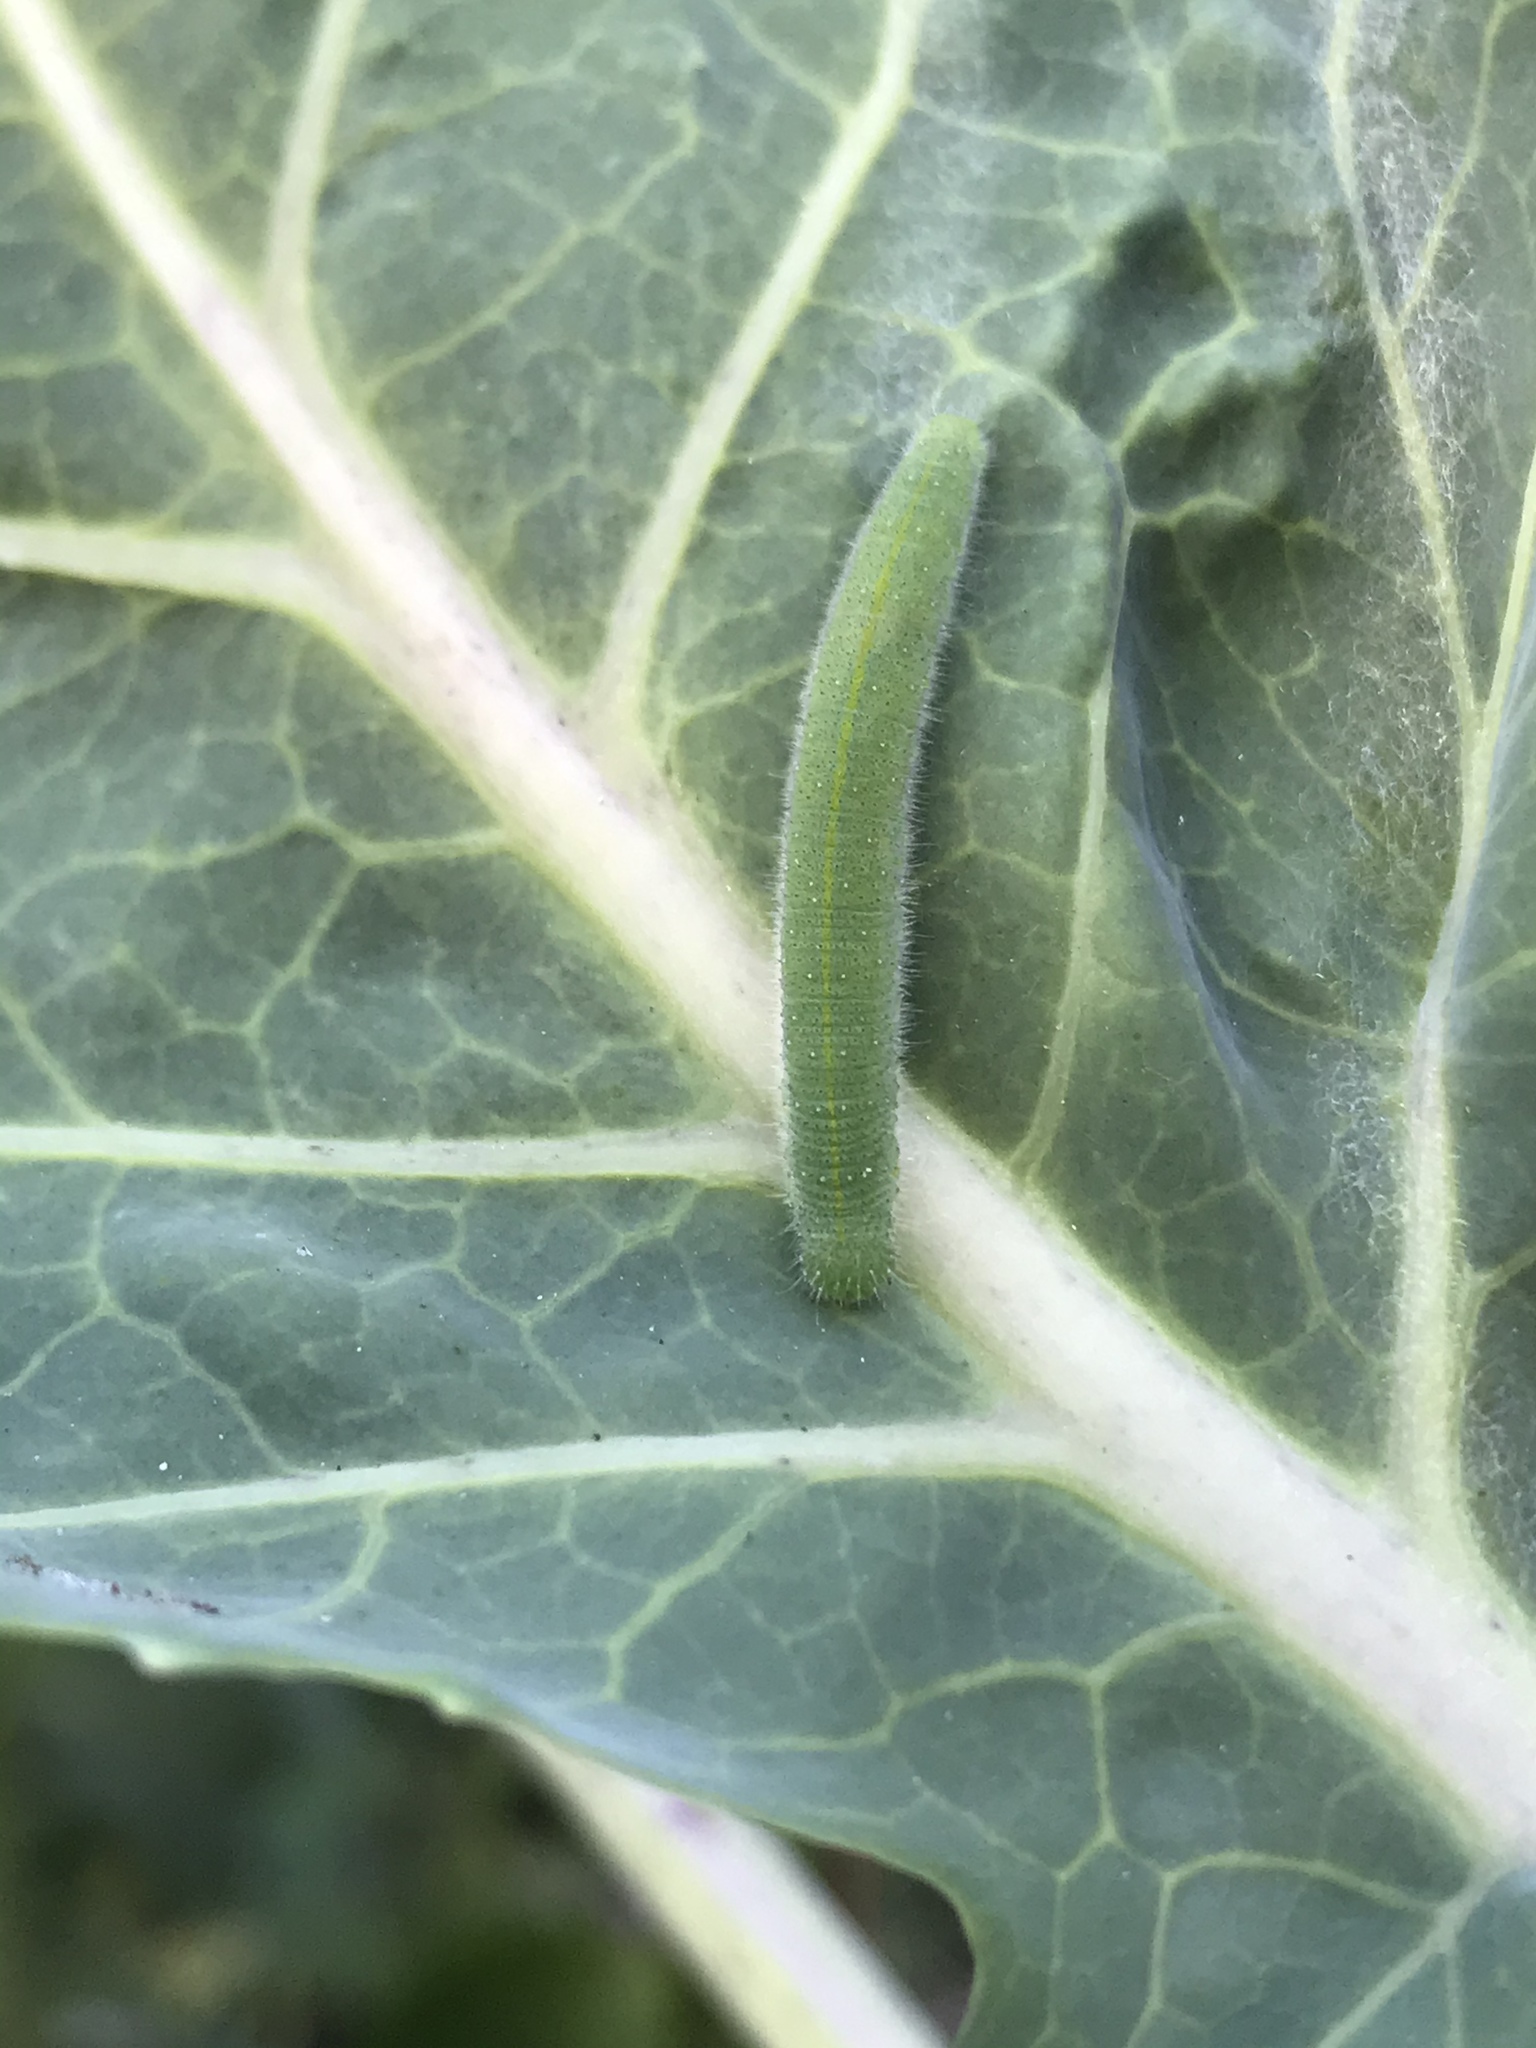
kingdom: Animalia
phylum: Arthropoda
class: Insecta
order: Lepidoptera
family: Pieridae
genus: Pieris
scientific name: Pieris rapae
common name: Small white
